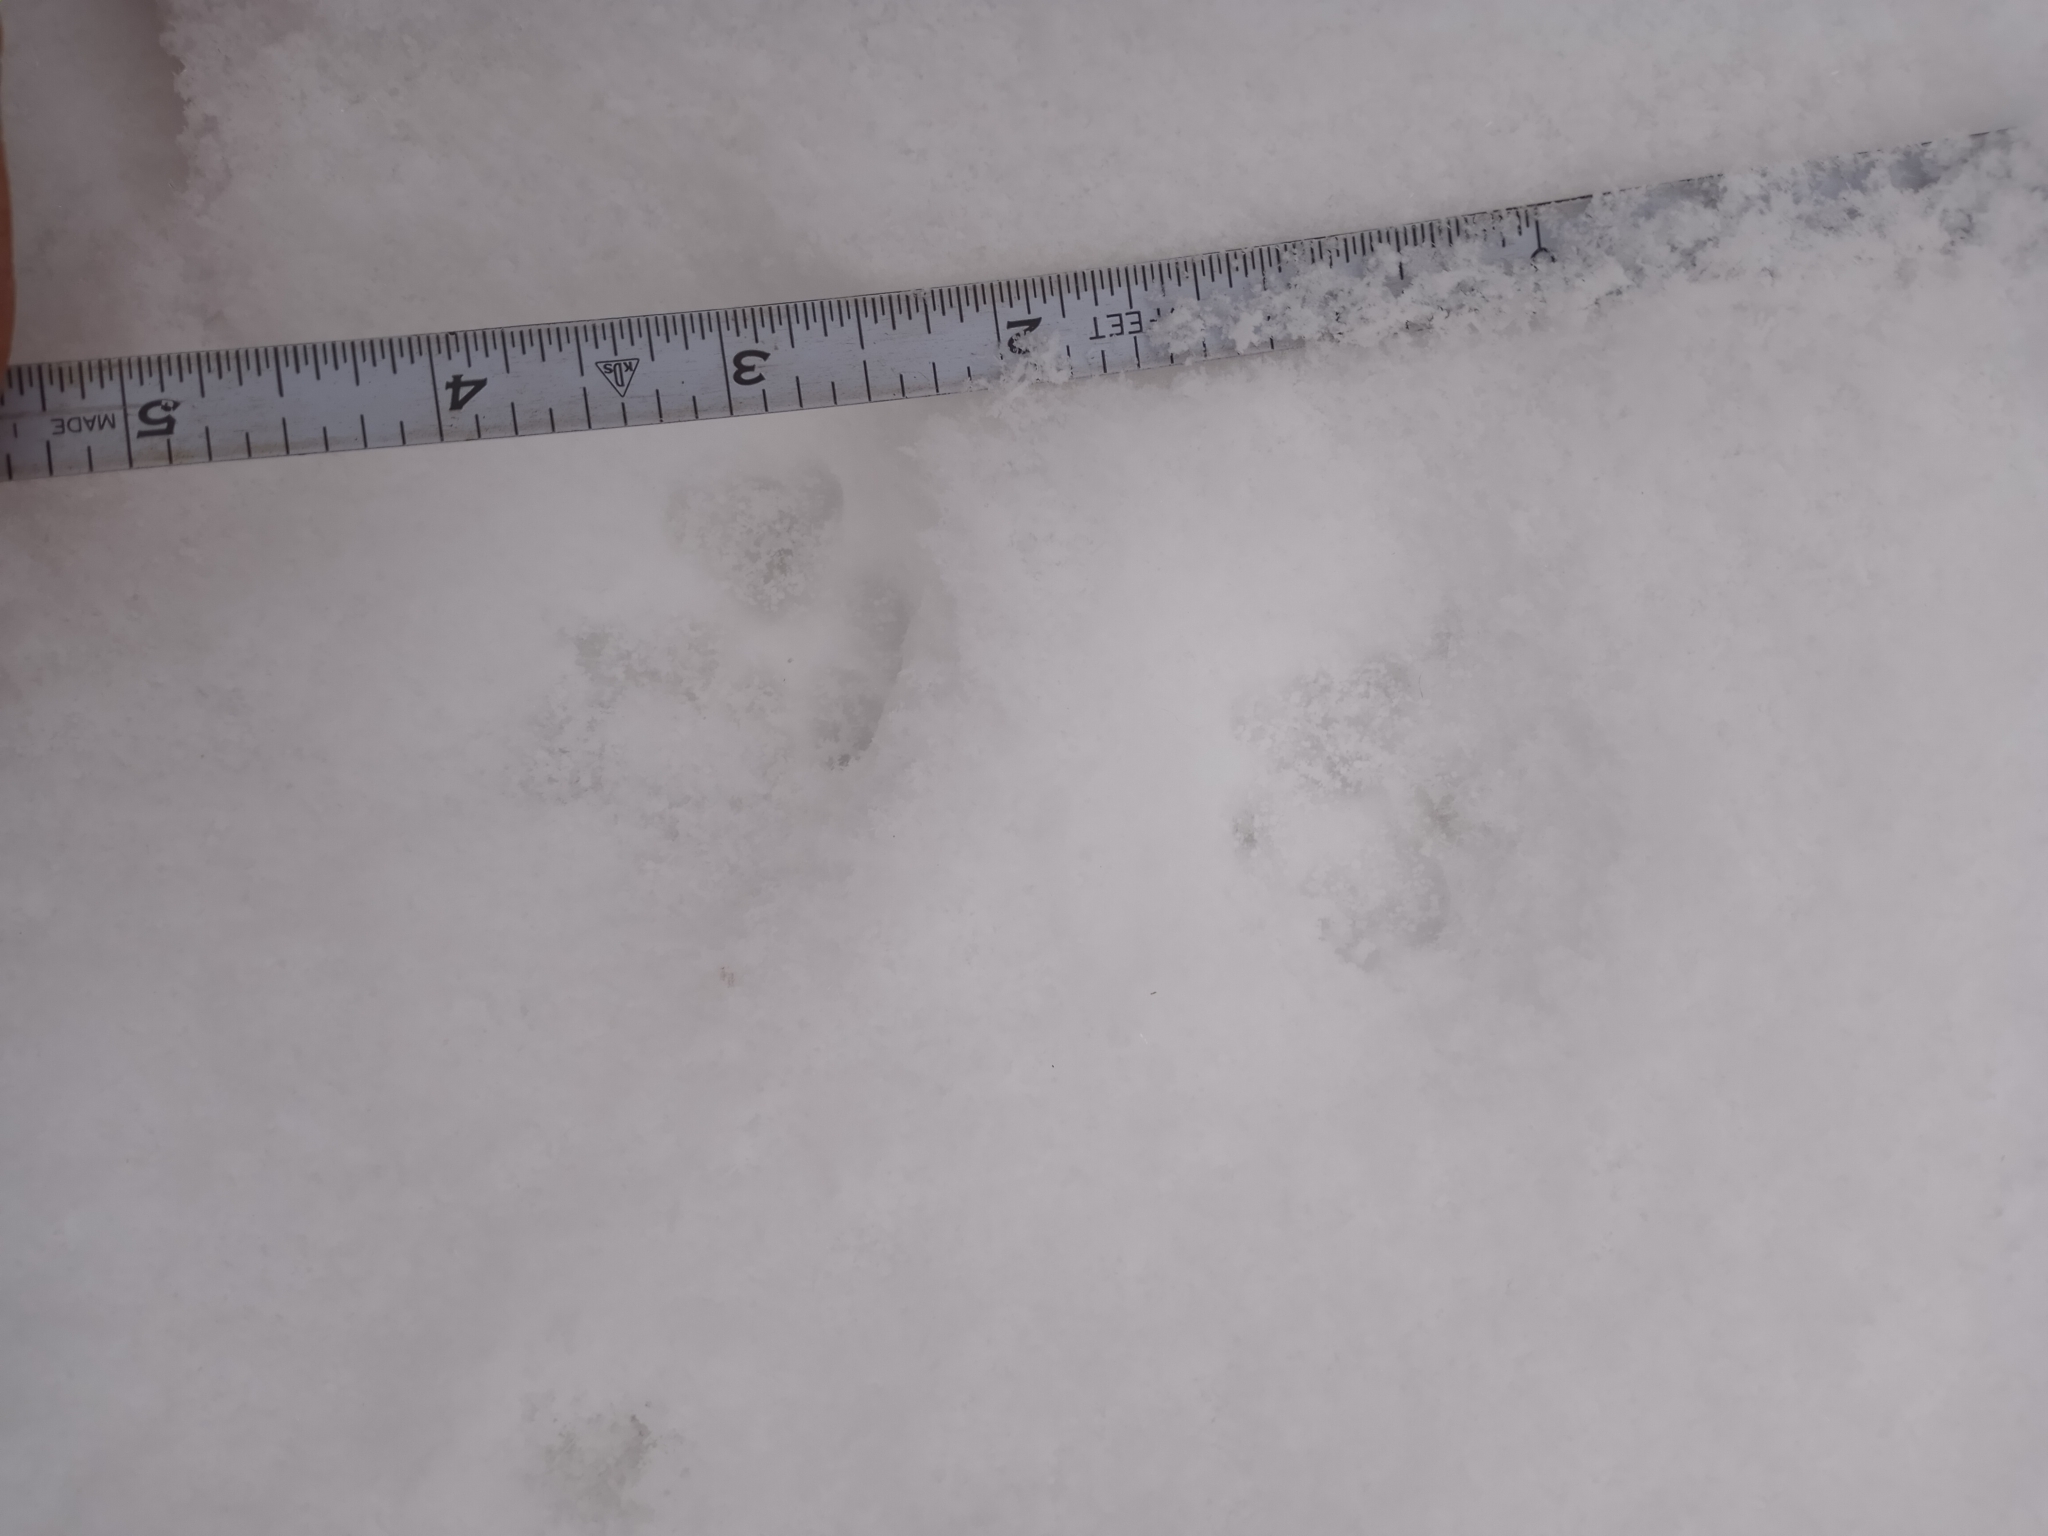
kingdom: Animalia
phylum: Chordata
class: Mammalia
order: Carnivora
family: Felidae
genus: Felis
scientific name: Felis catus
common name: Domestic cat
